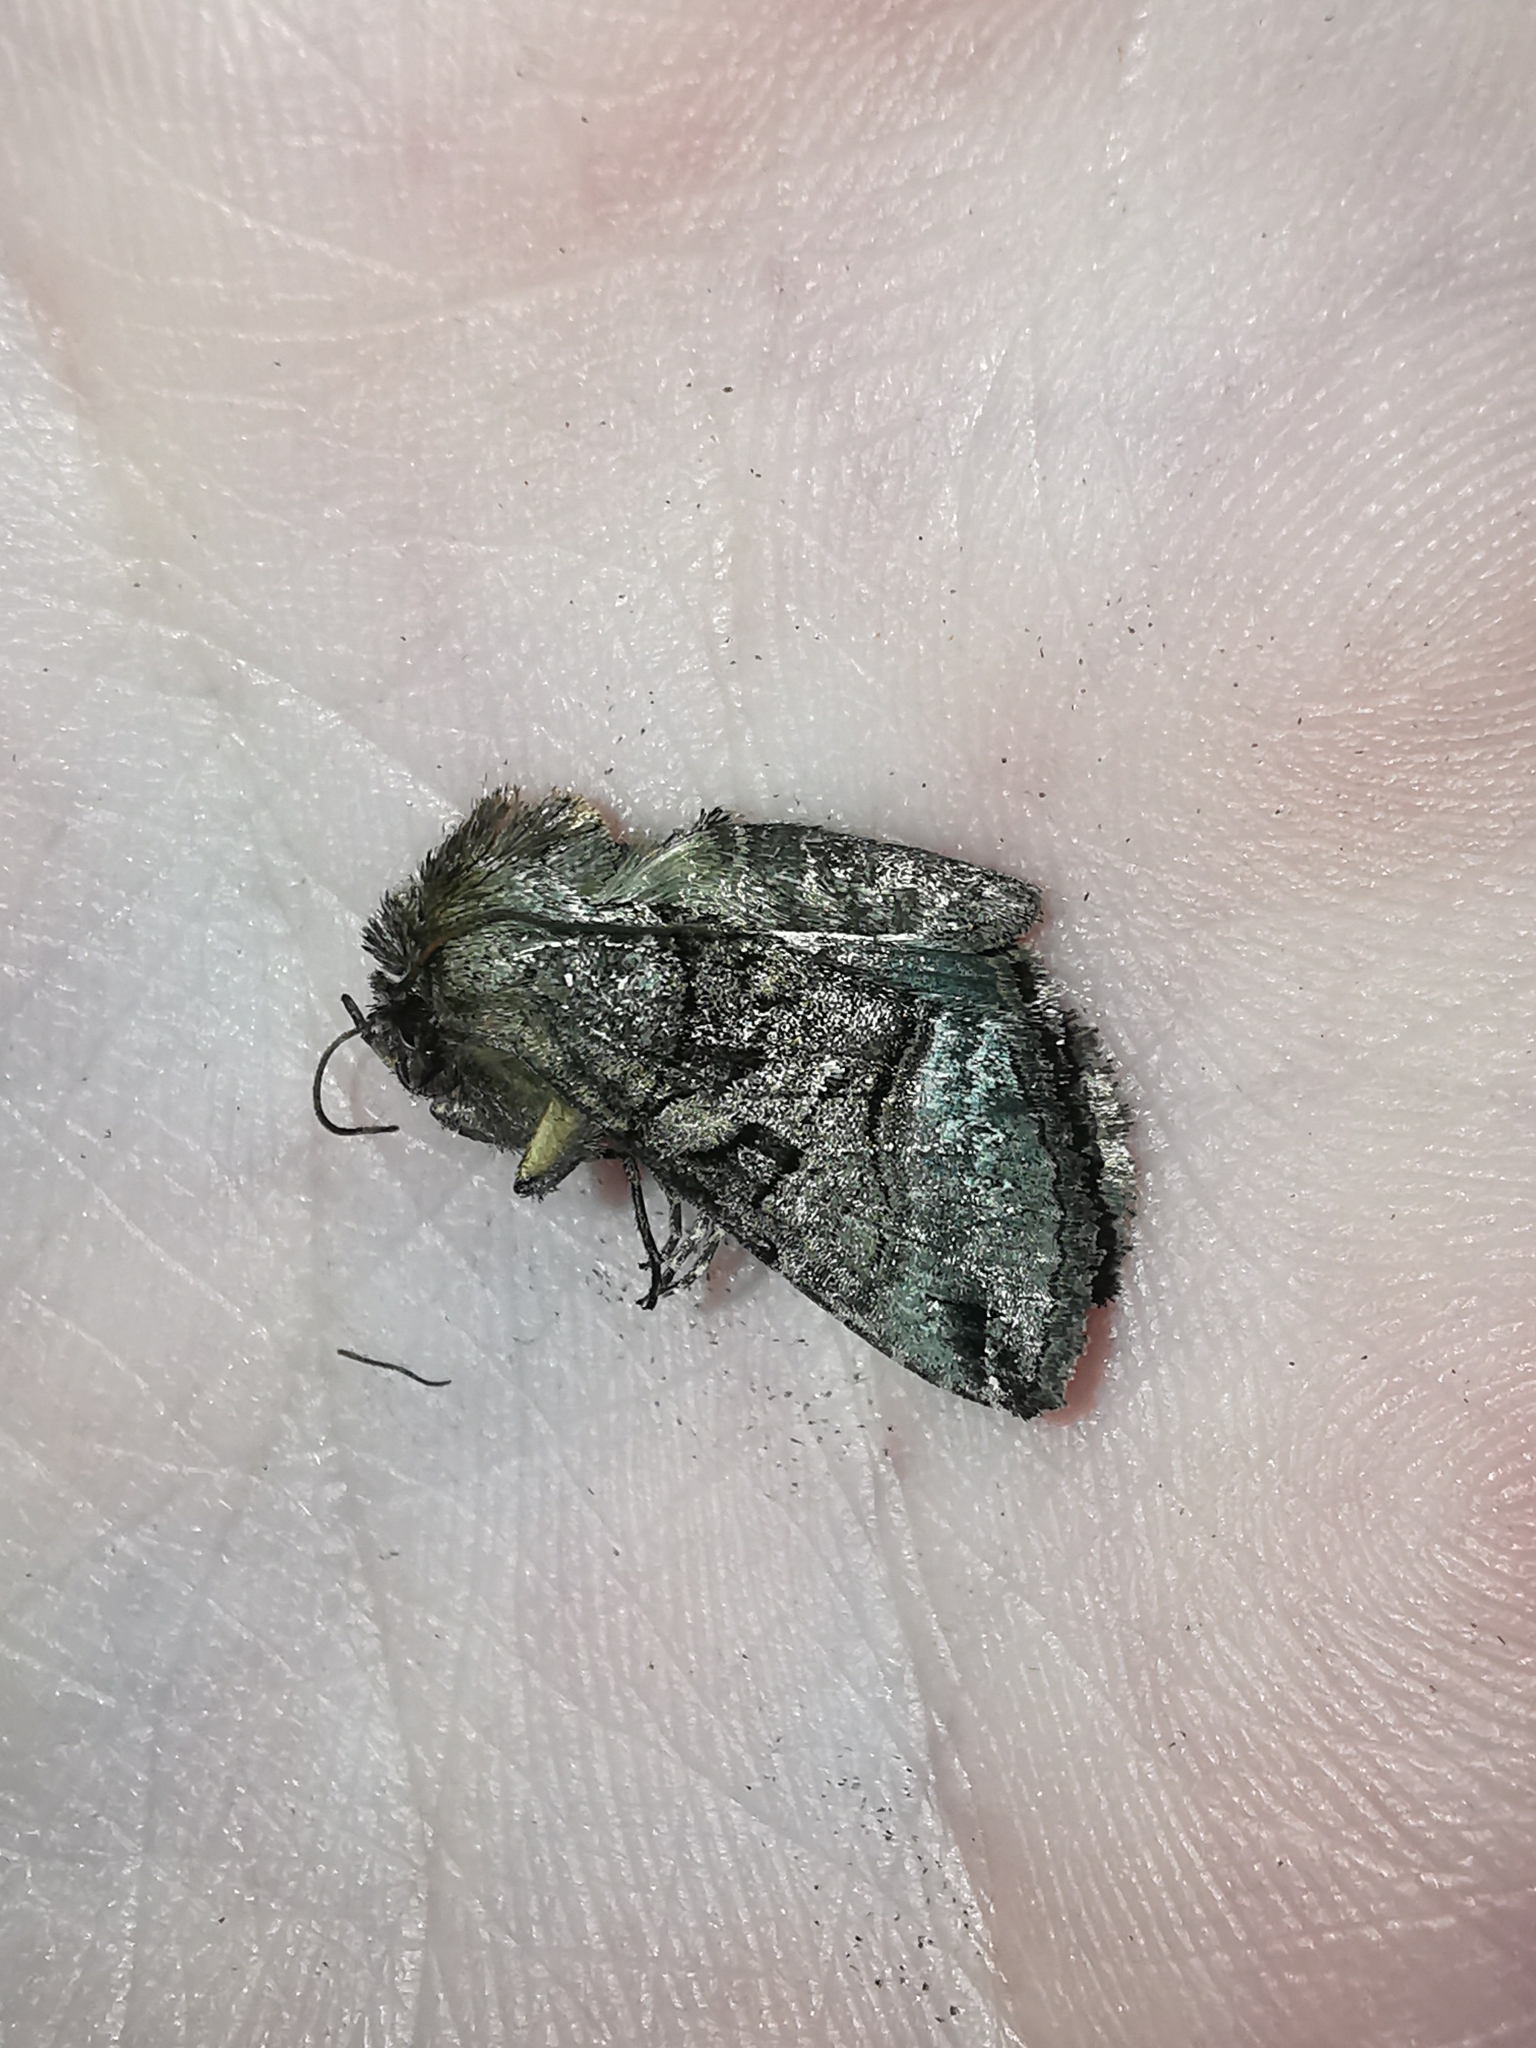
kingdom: Animalia
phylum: Arthropoda
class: Insecta
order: Lepidoptera
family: Noctuidae
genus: Abrostola
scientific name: Abrostola tripartita
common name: Spectacle
